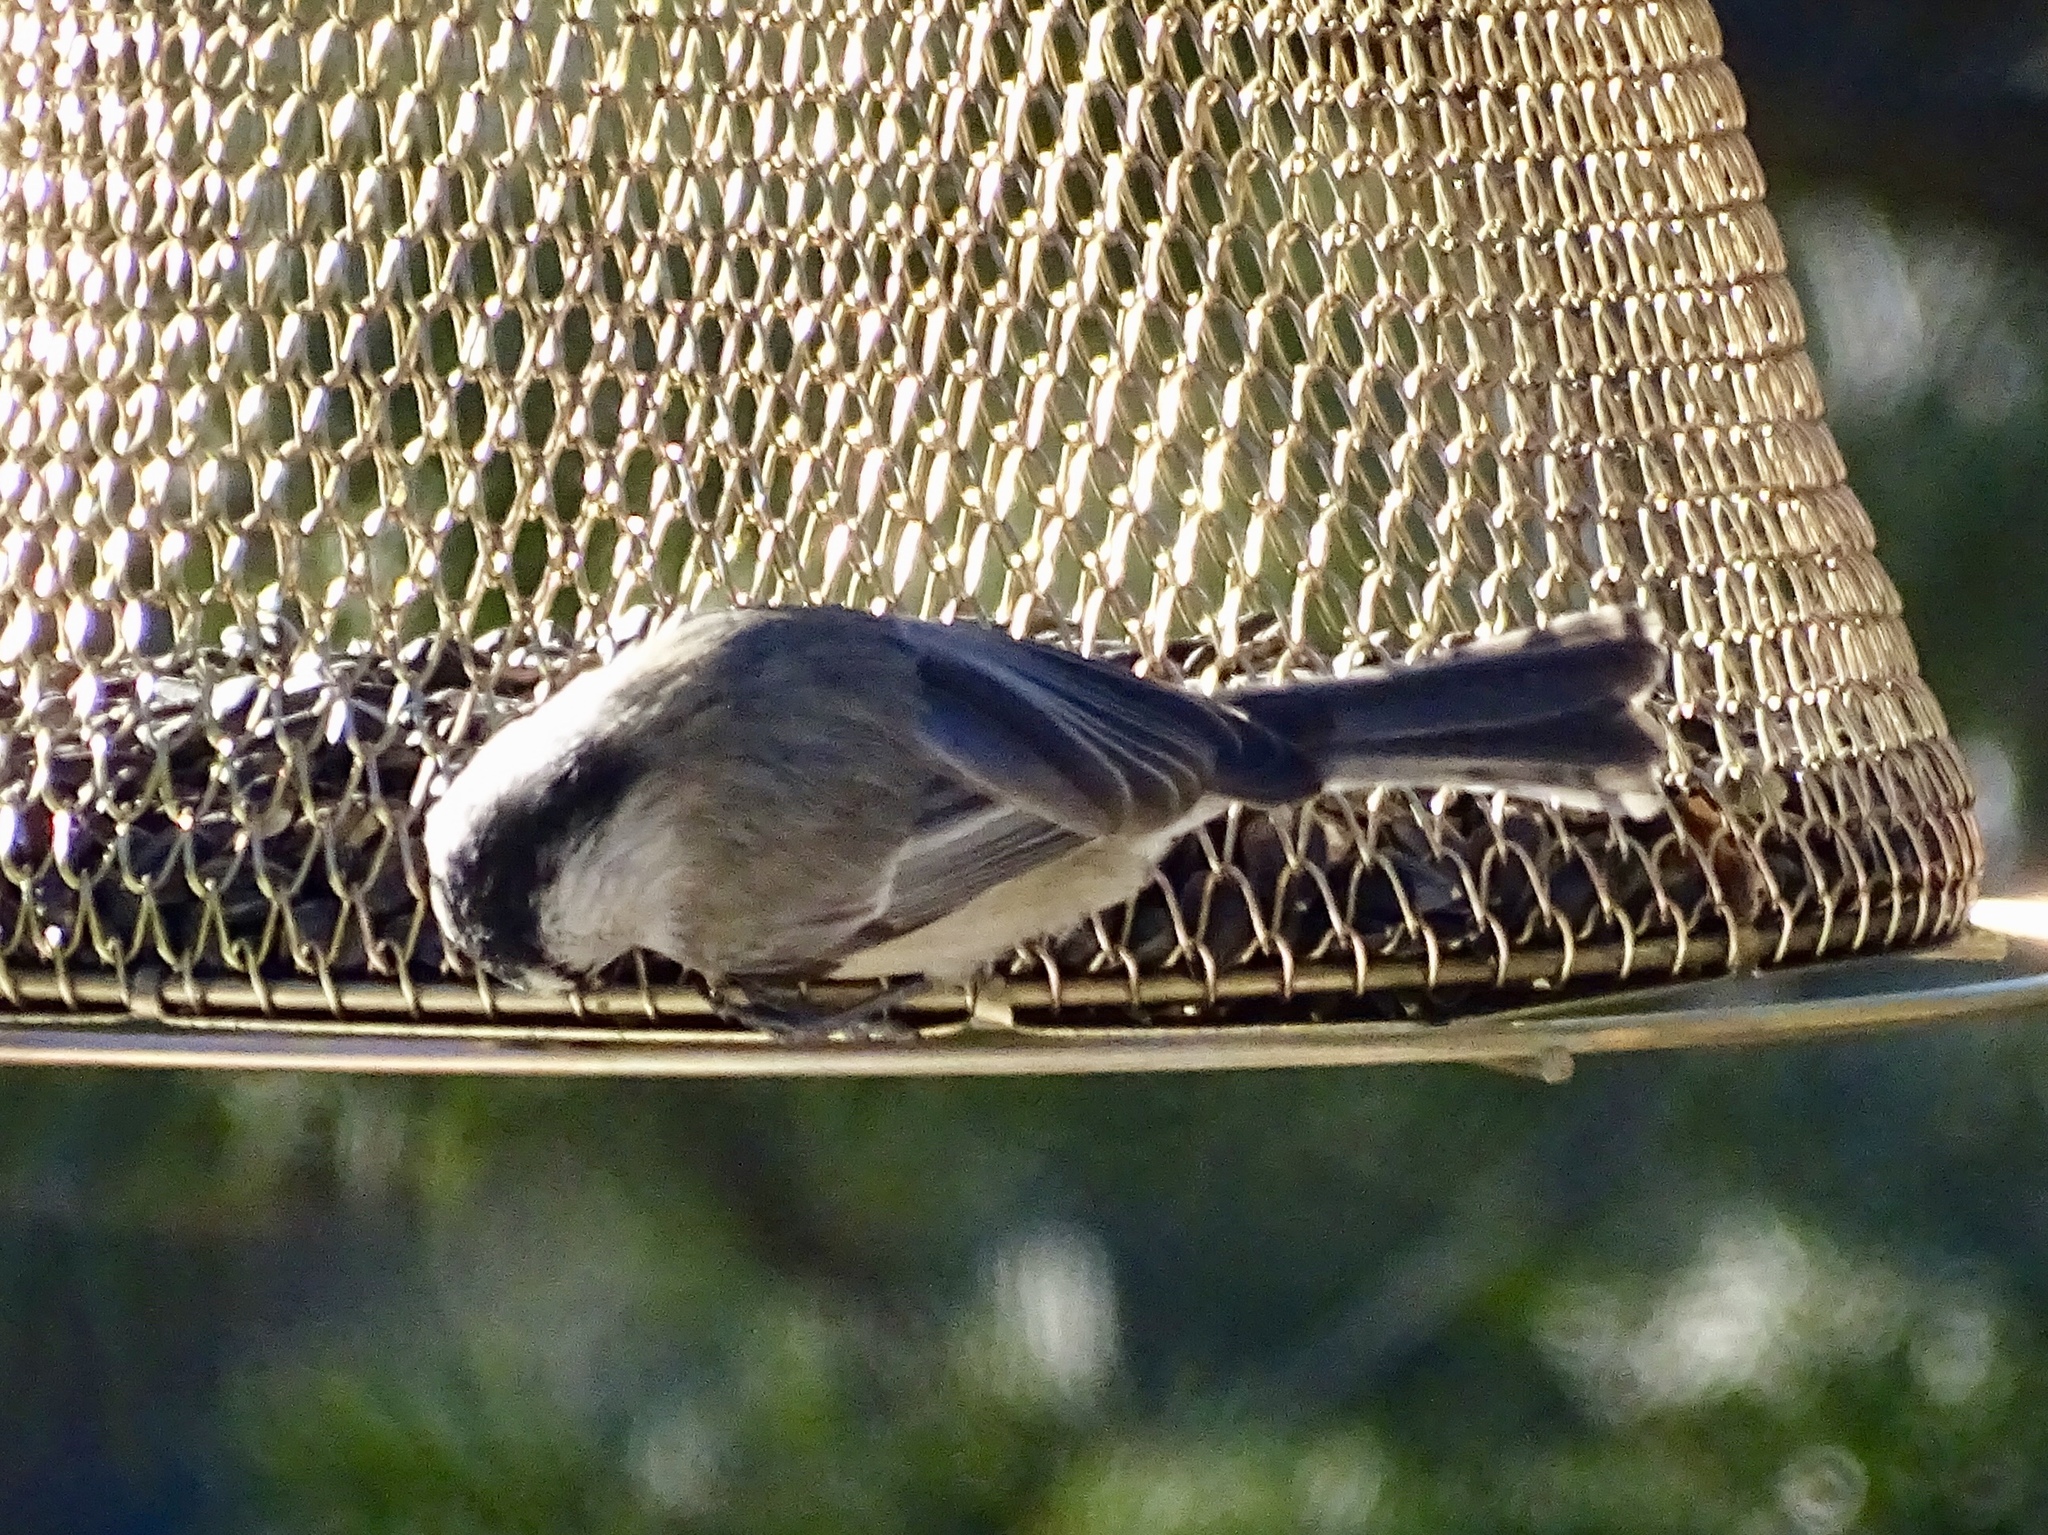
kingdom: Animalia
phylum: Chordata
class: Aves
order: Passeriformes
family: Paridae
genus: Poecile
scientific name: Poecile gambeli
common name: Mountain chickadee
